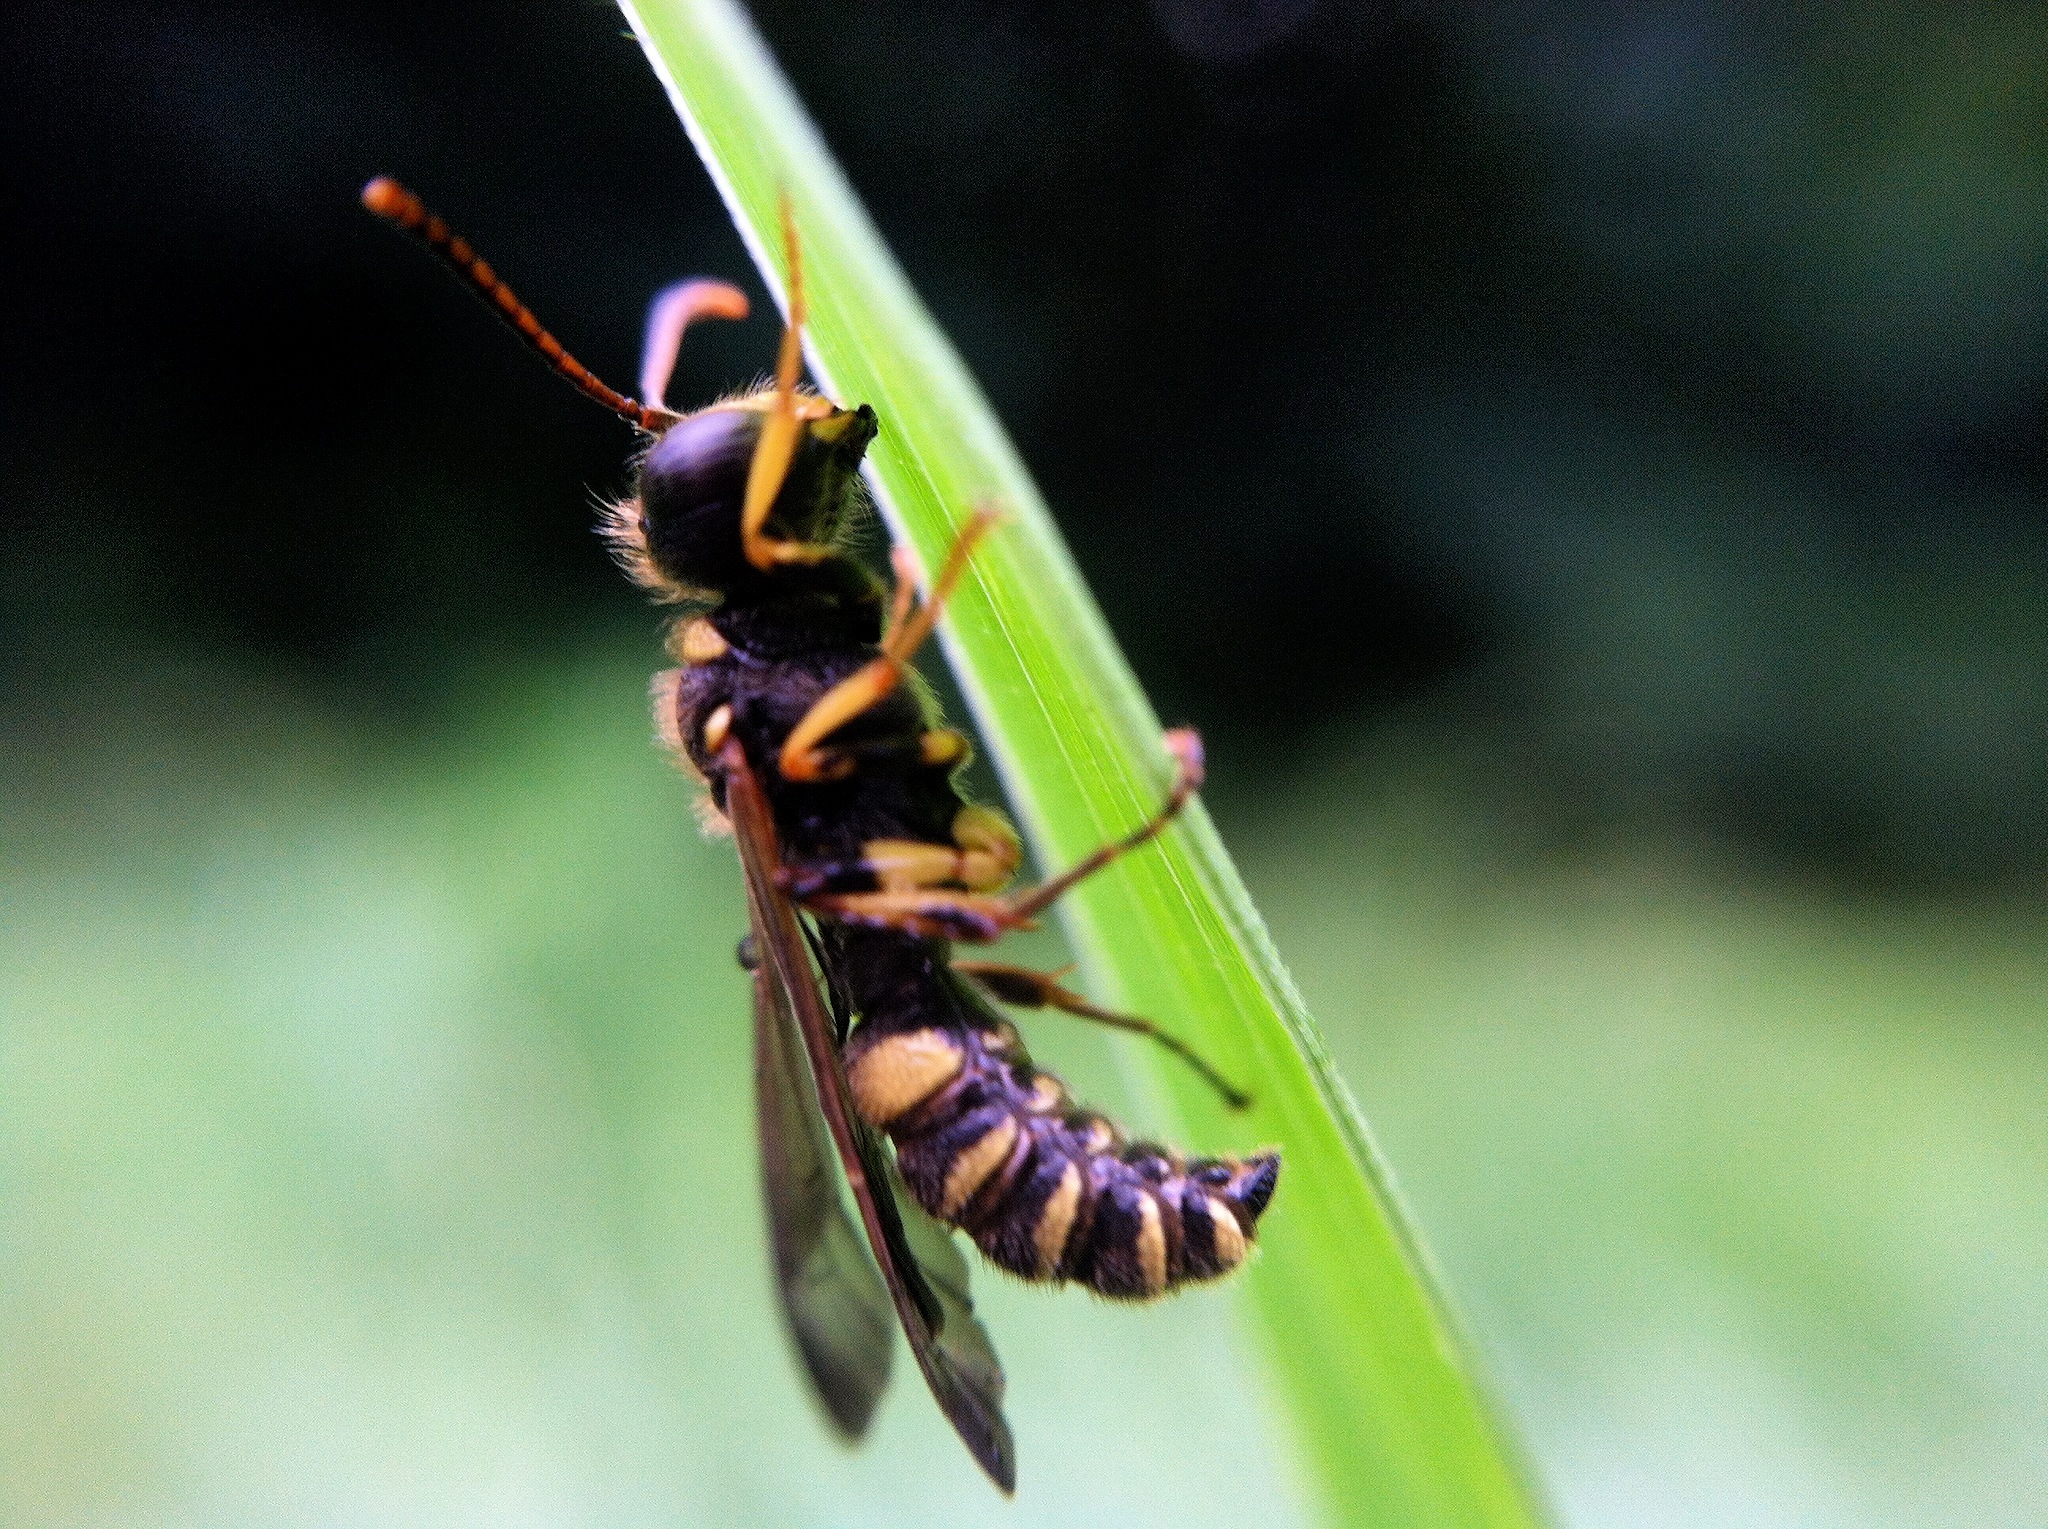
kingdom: Animalia
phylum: Arthropoda
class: Insecta
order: Hymenoptera
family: Crabronidae
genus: Cerceris
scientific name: Cerceris clypeata
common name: Weevil wasp
